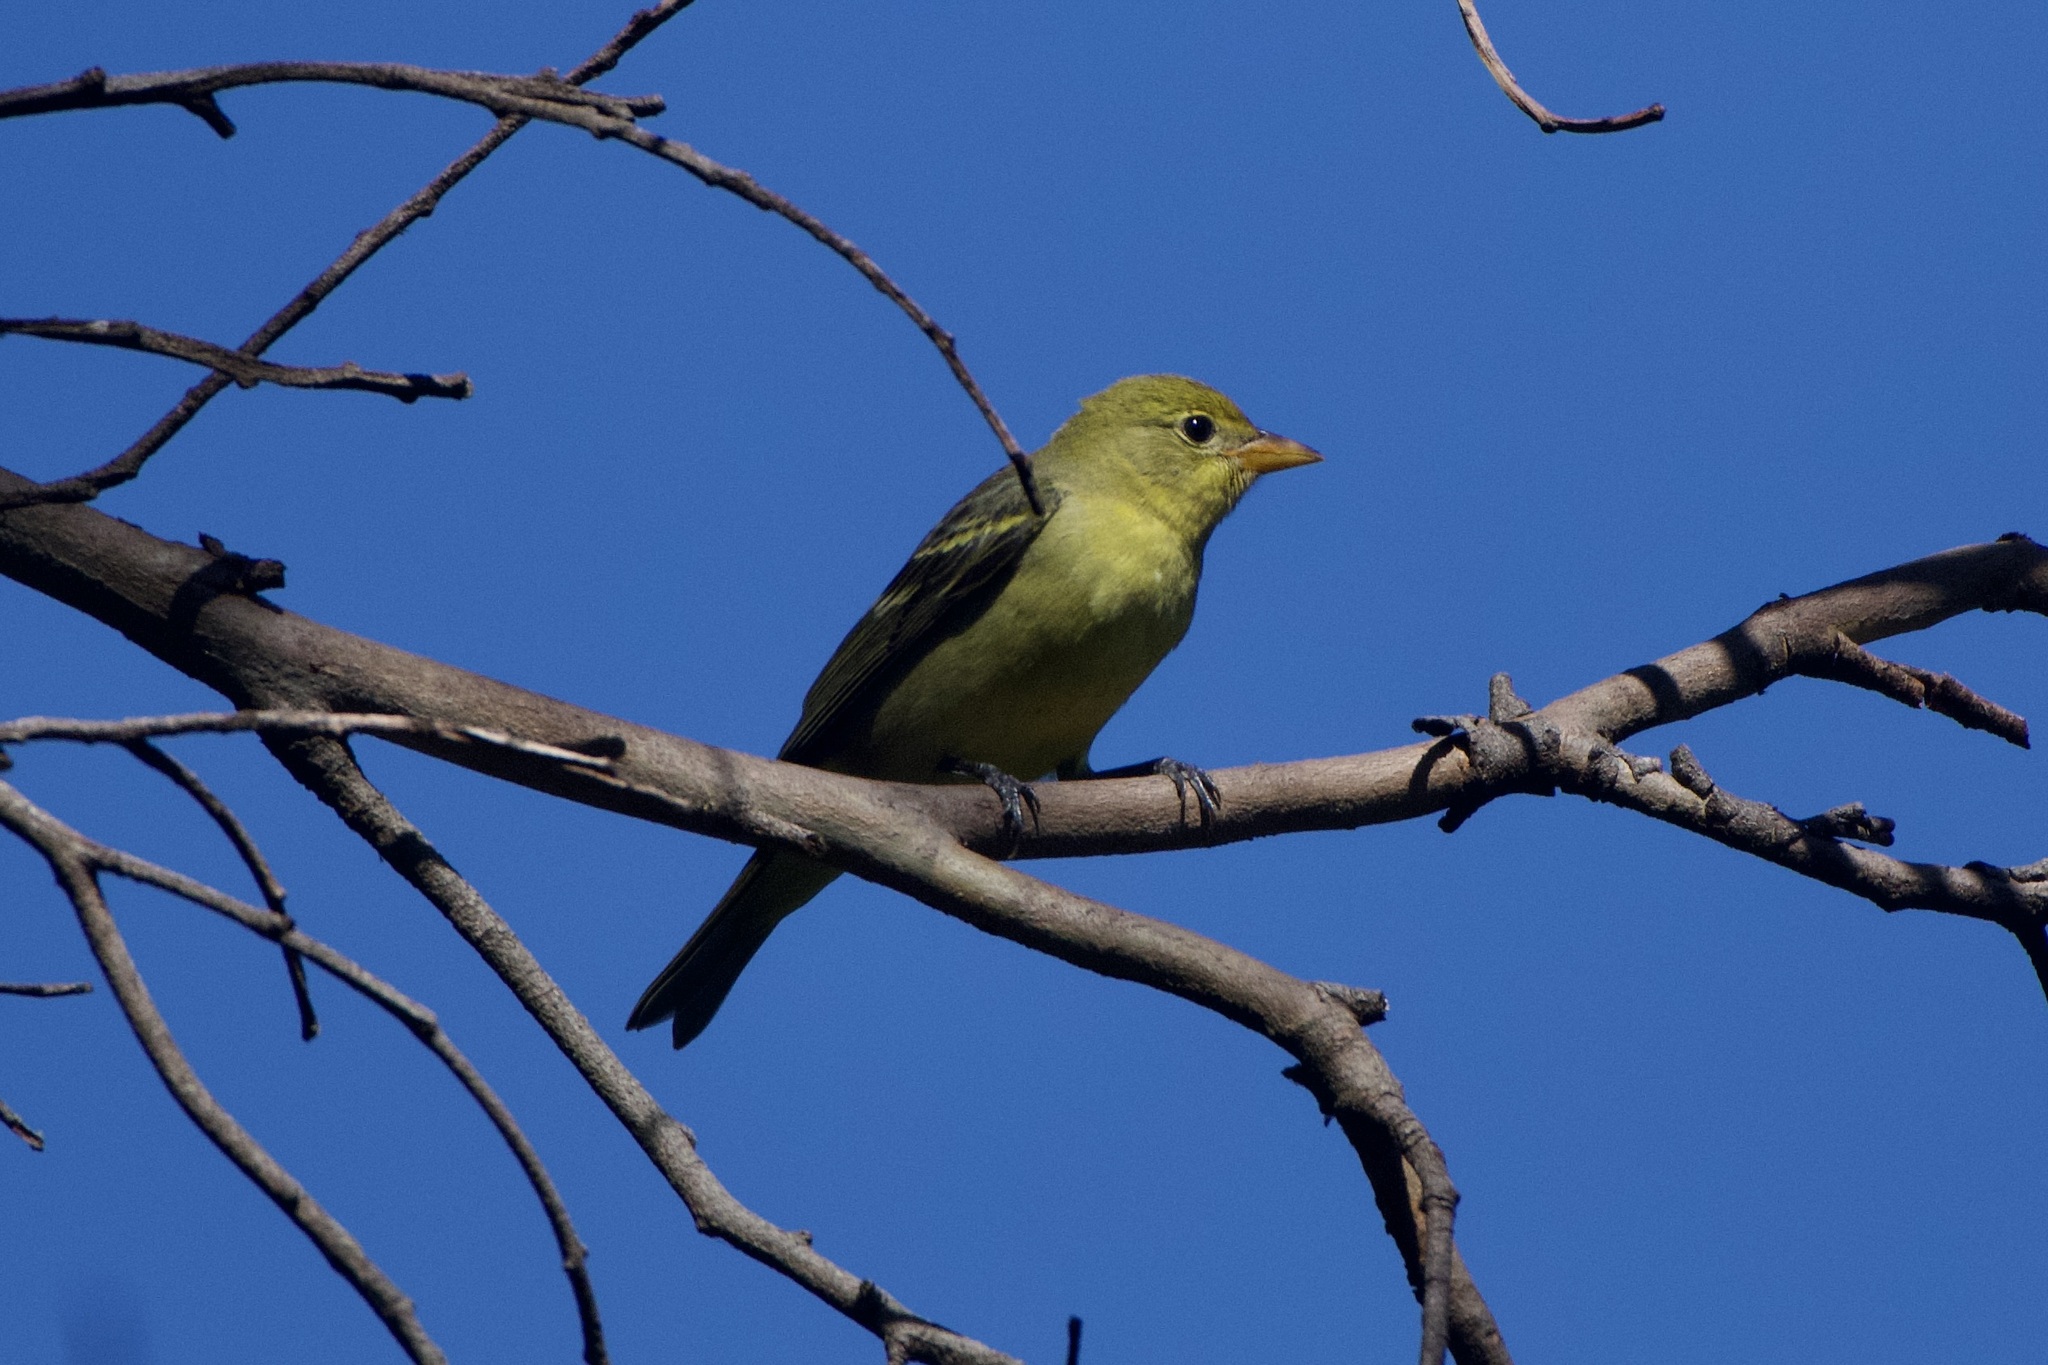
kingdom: Animalia
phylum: Chordata
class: Aves
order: Passeriformes
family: Cardinalidae
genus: Piranga
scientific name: Piranga ludoviciana
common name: Western tanager
